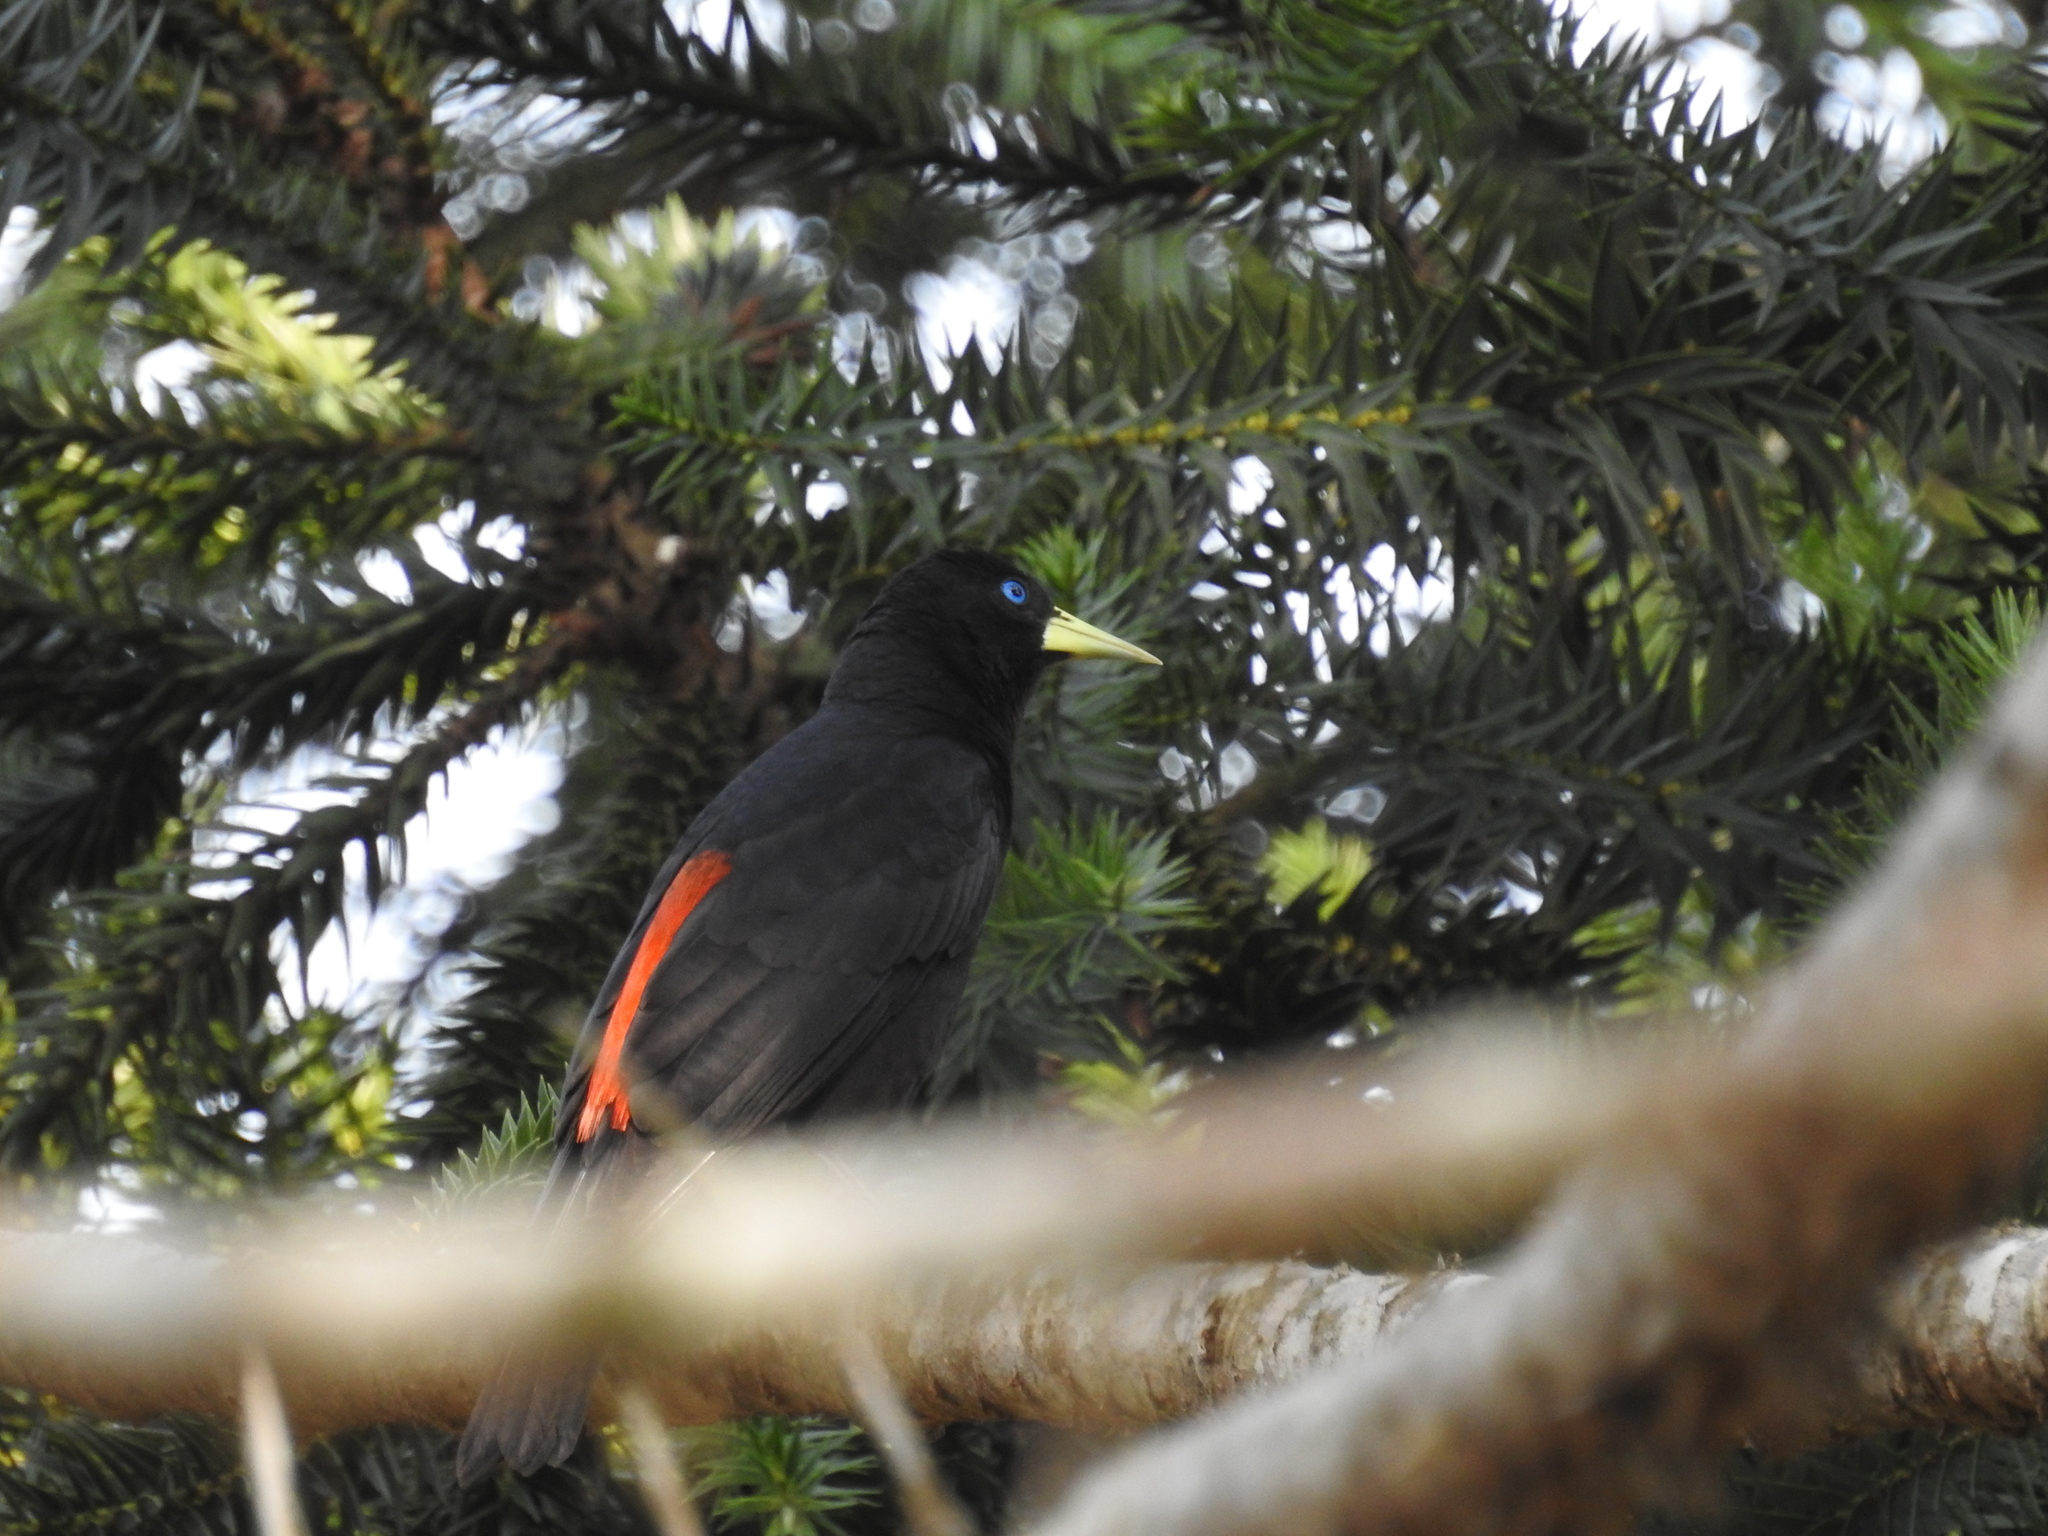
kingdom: Animalia
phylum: Chordata
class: Aves
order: Passeriformes
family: Icteridae
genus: Cacicus
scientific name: Cacicus haemorrhous
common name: Red-rumped cacique
